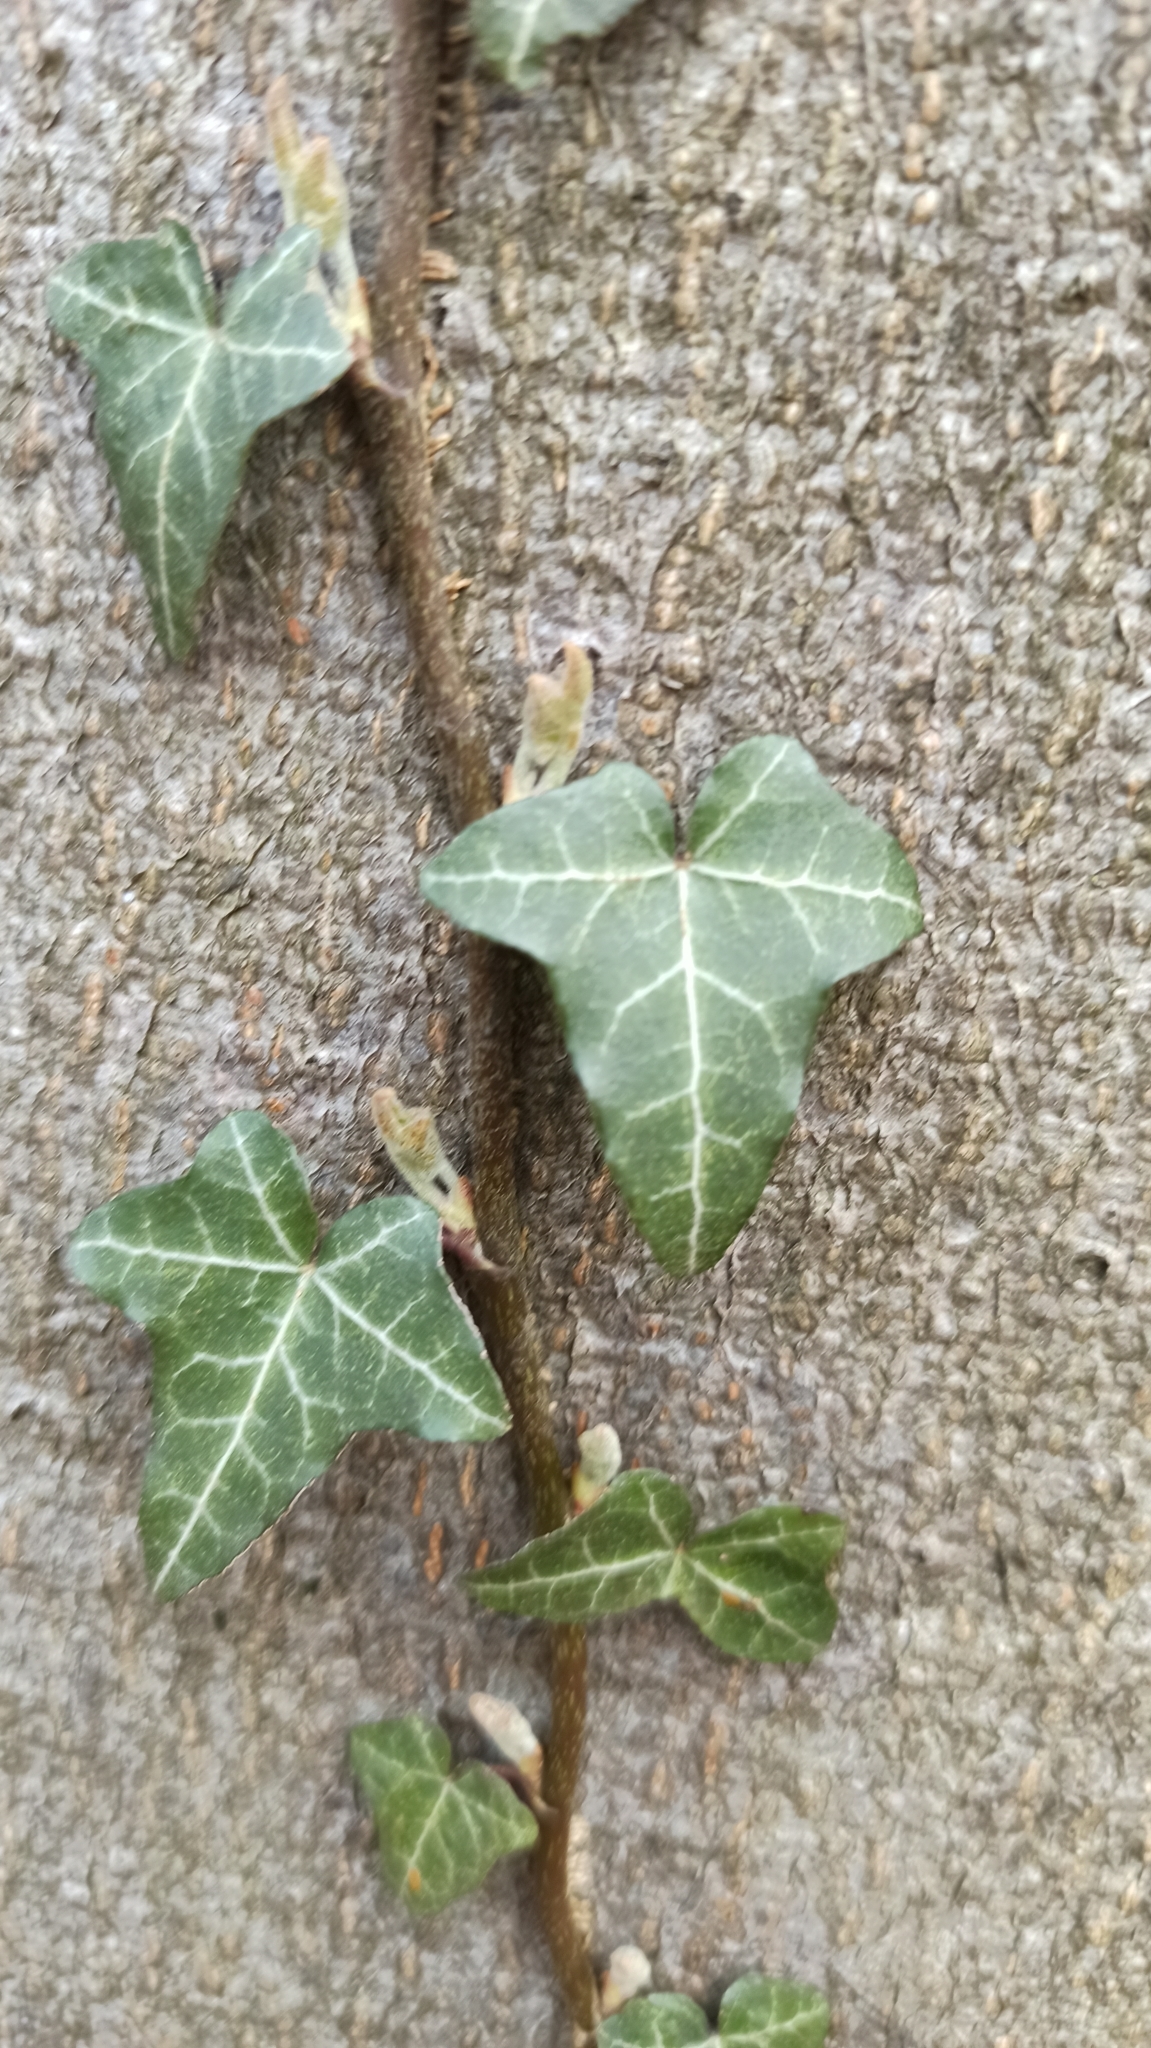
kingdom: Plantae
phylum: Tracheophyta
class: Magnoliopsida
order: Apiales
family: Araliaceae
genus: Hedera
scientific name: Hedera helix
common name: Ivy
